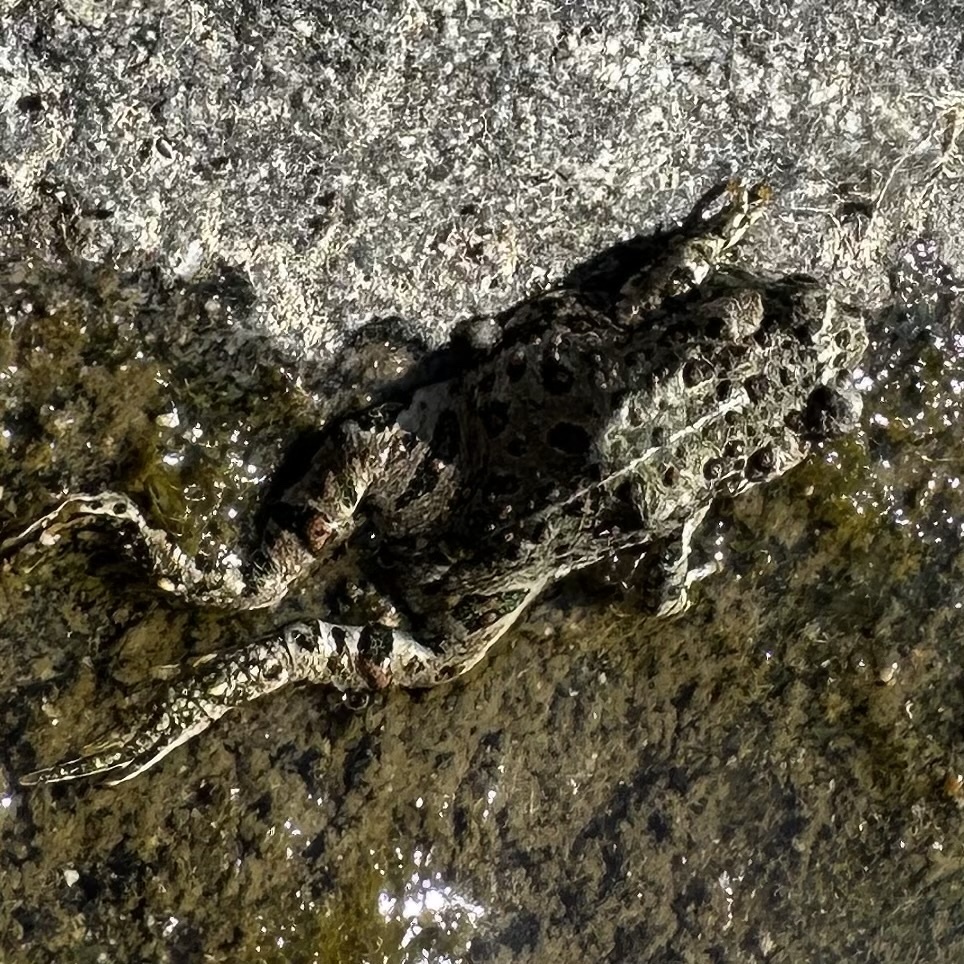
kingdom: Animalia
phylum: Chordata
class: Amphibia
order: Anura
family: Bufonidae
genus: Anaxyrus
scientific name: Anaxyrus boreas
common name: Western toad
